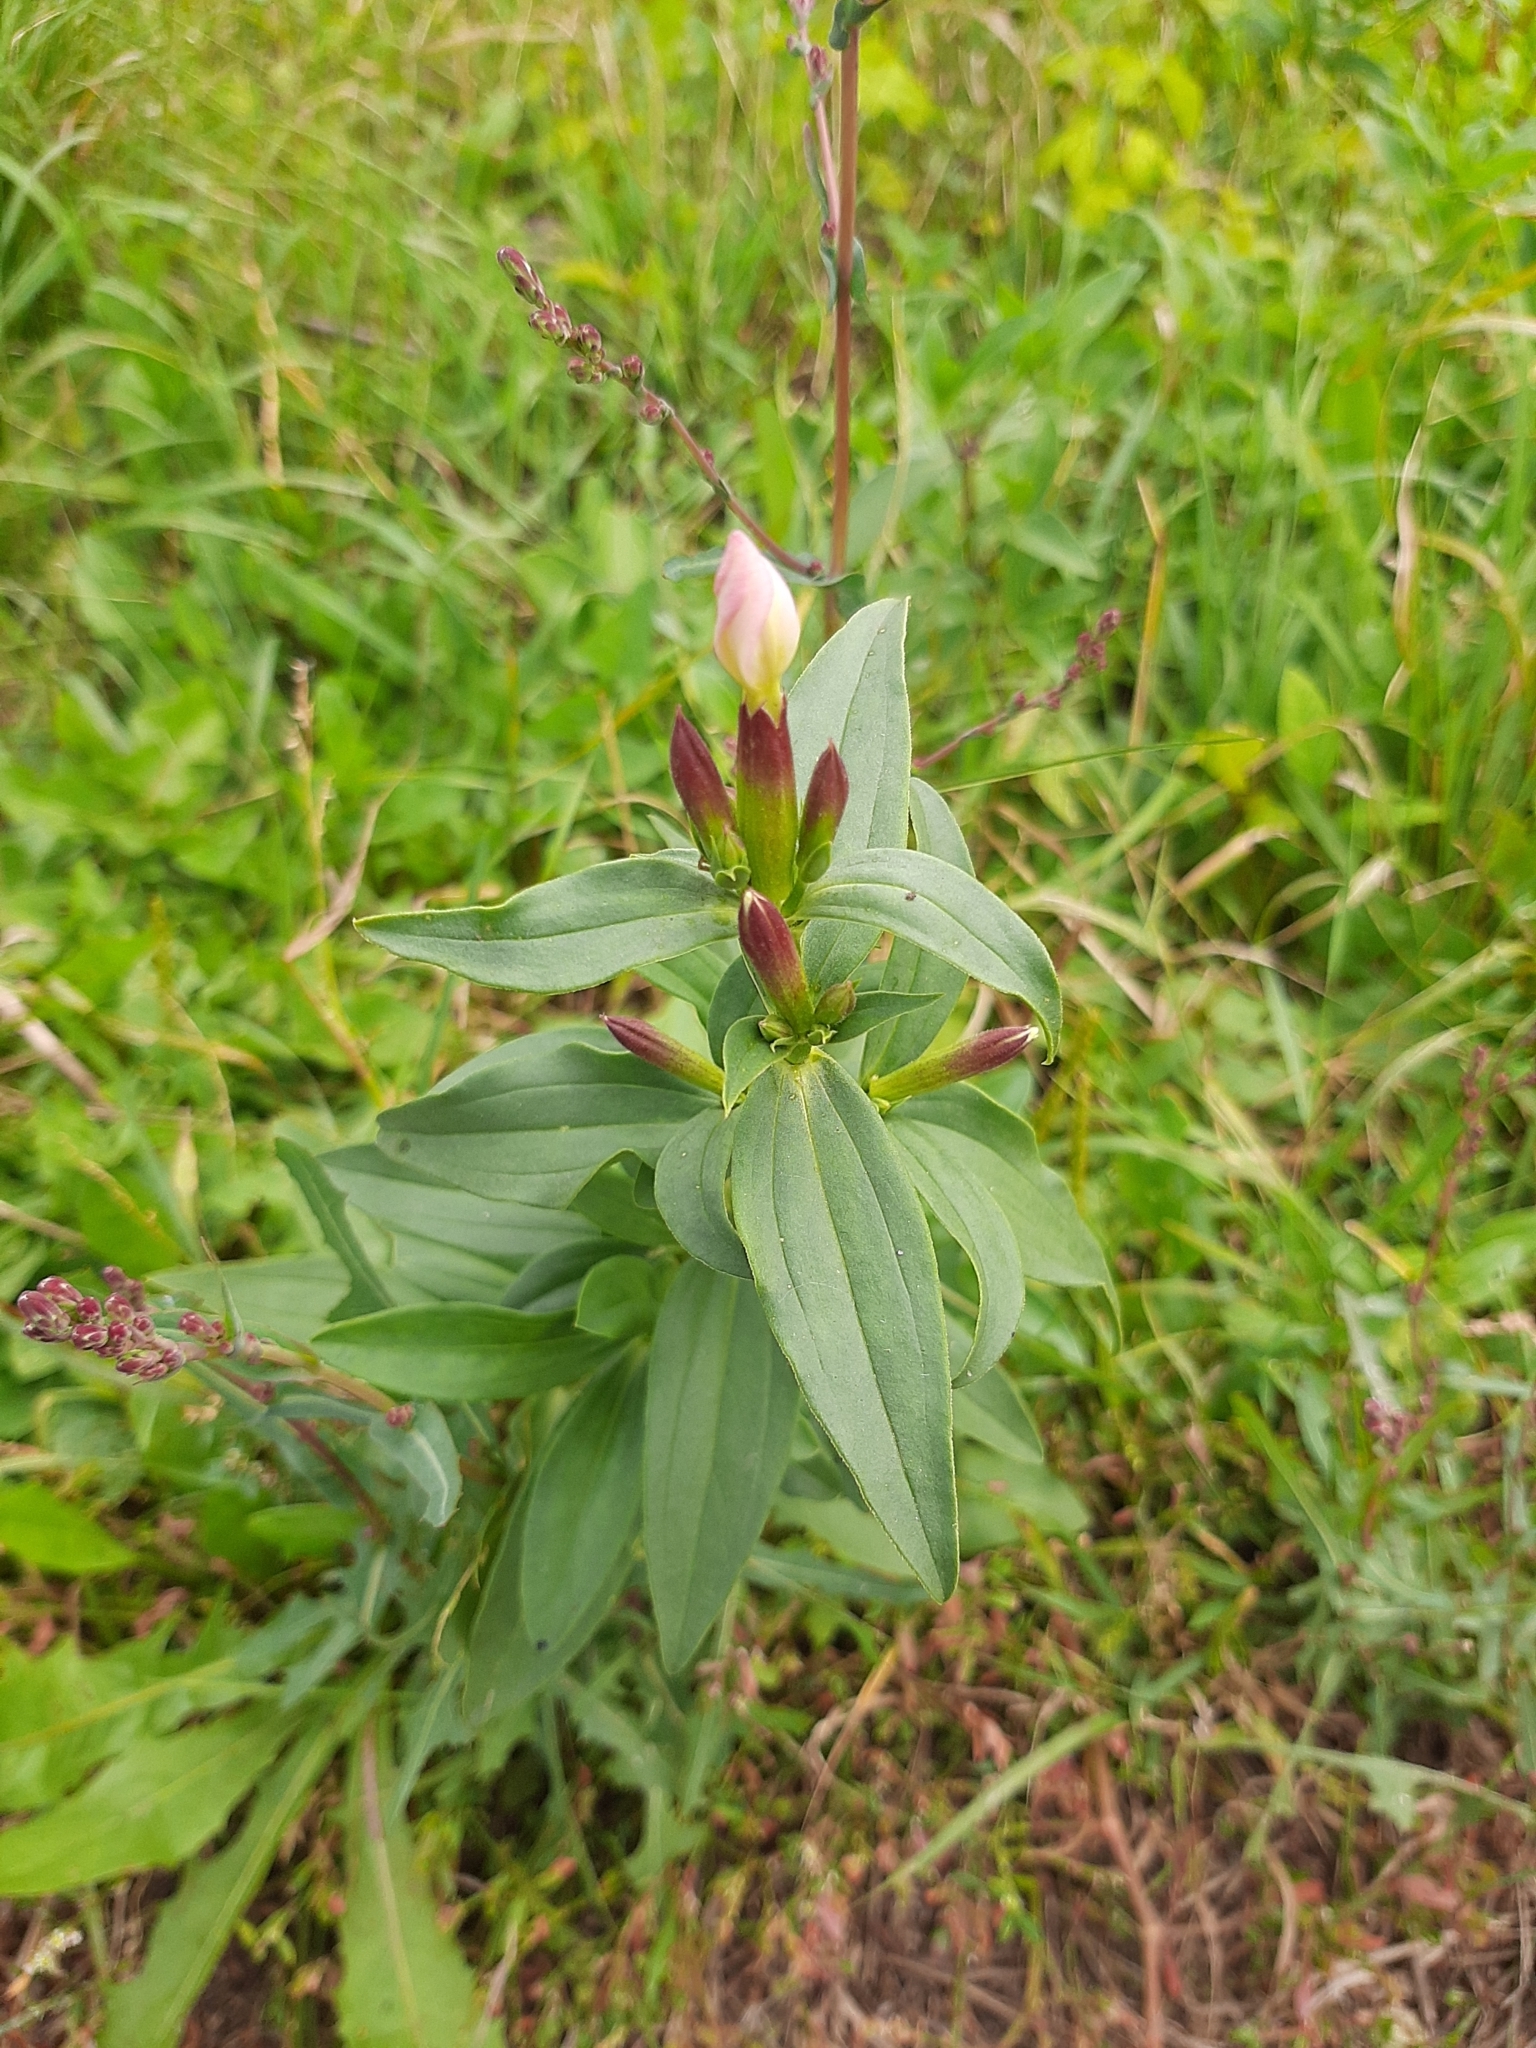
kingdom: Plantae
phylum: Tracheophyta
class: Magnoliopsida
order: Caryophyllales
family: Caryophyllaceae
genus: Saponaria
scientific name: Saponaria officinalis
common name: Soapwort
